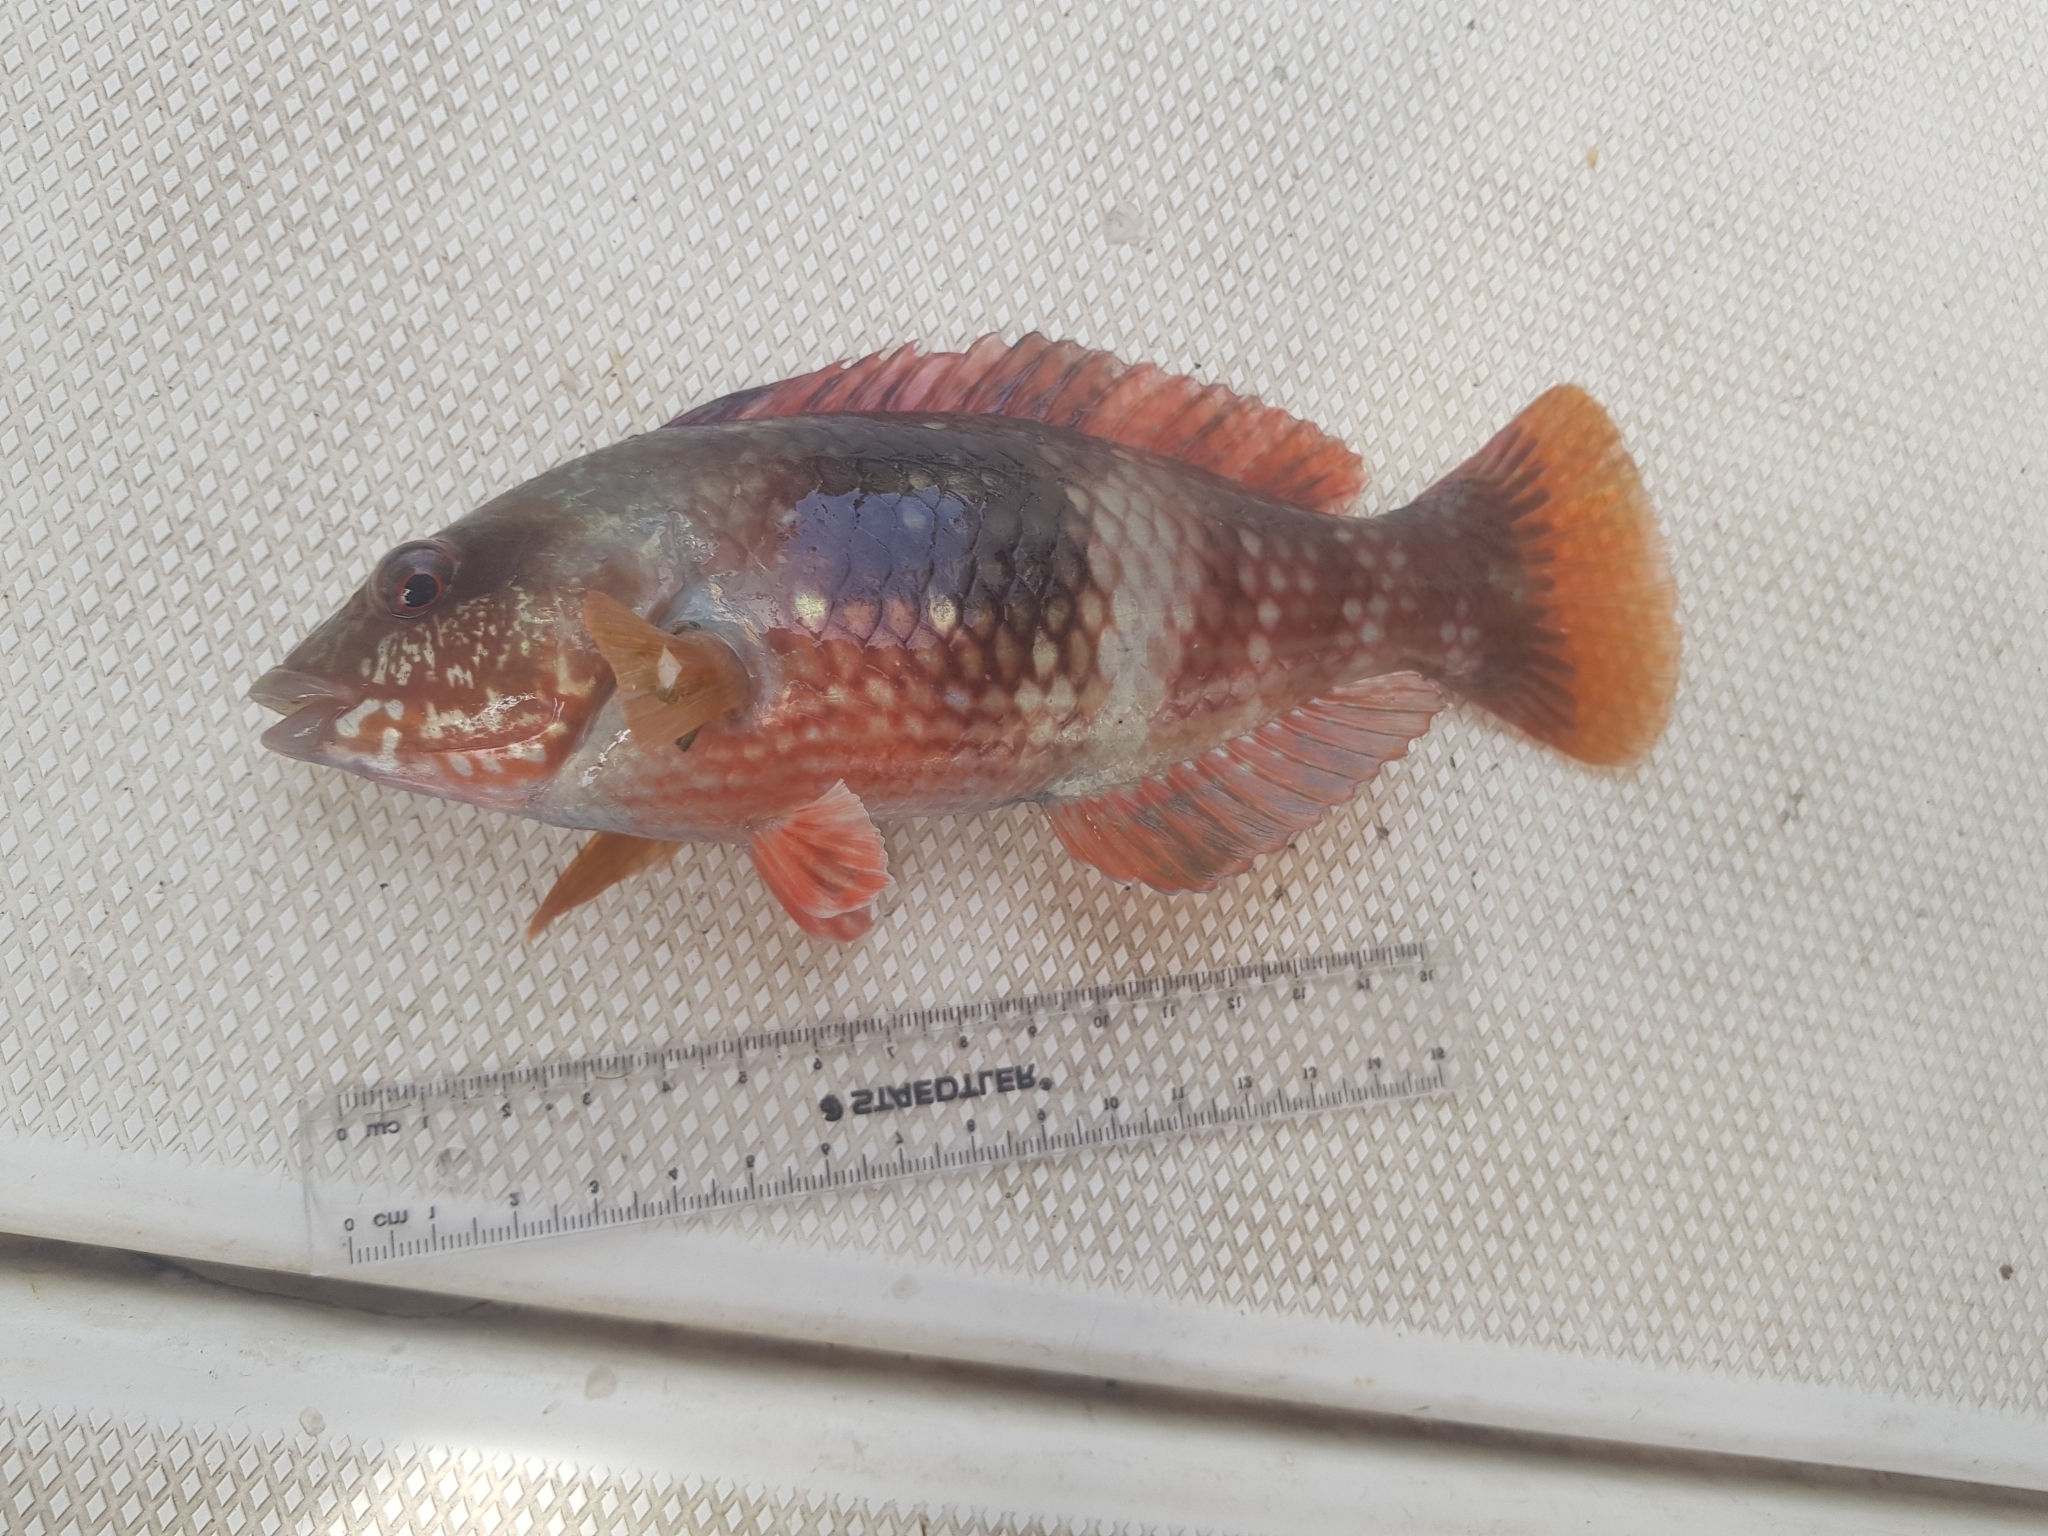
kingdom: Animalia
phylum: Chordata
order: Perciformes
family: Labridae
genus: Notolabrus
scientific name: Notolabrus tetricus
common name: Blue-throated parrotfish
